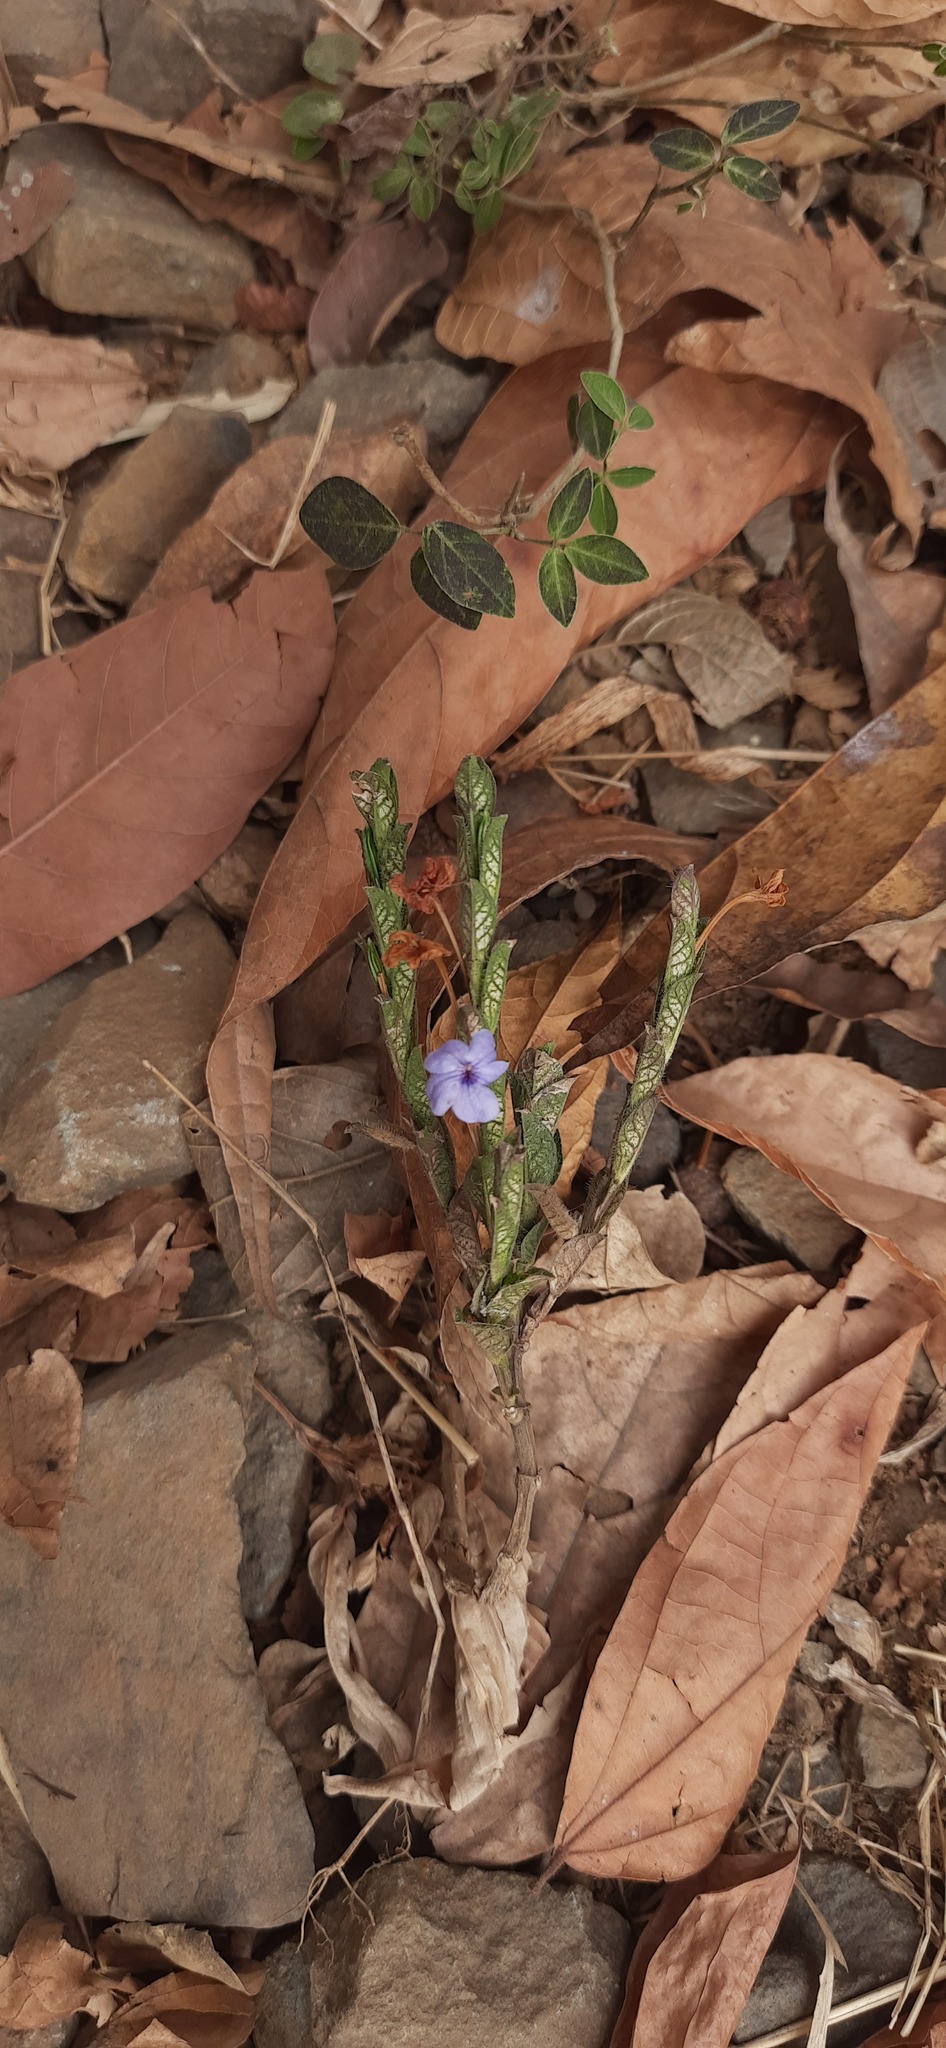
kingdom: Plantae
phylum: Tracheophyta
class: Magnoliopsida
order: Lamiales
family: Acanthaceae
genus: Eranthemum
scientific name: Eranthemum roseum
